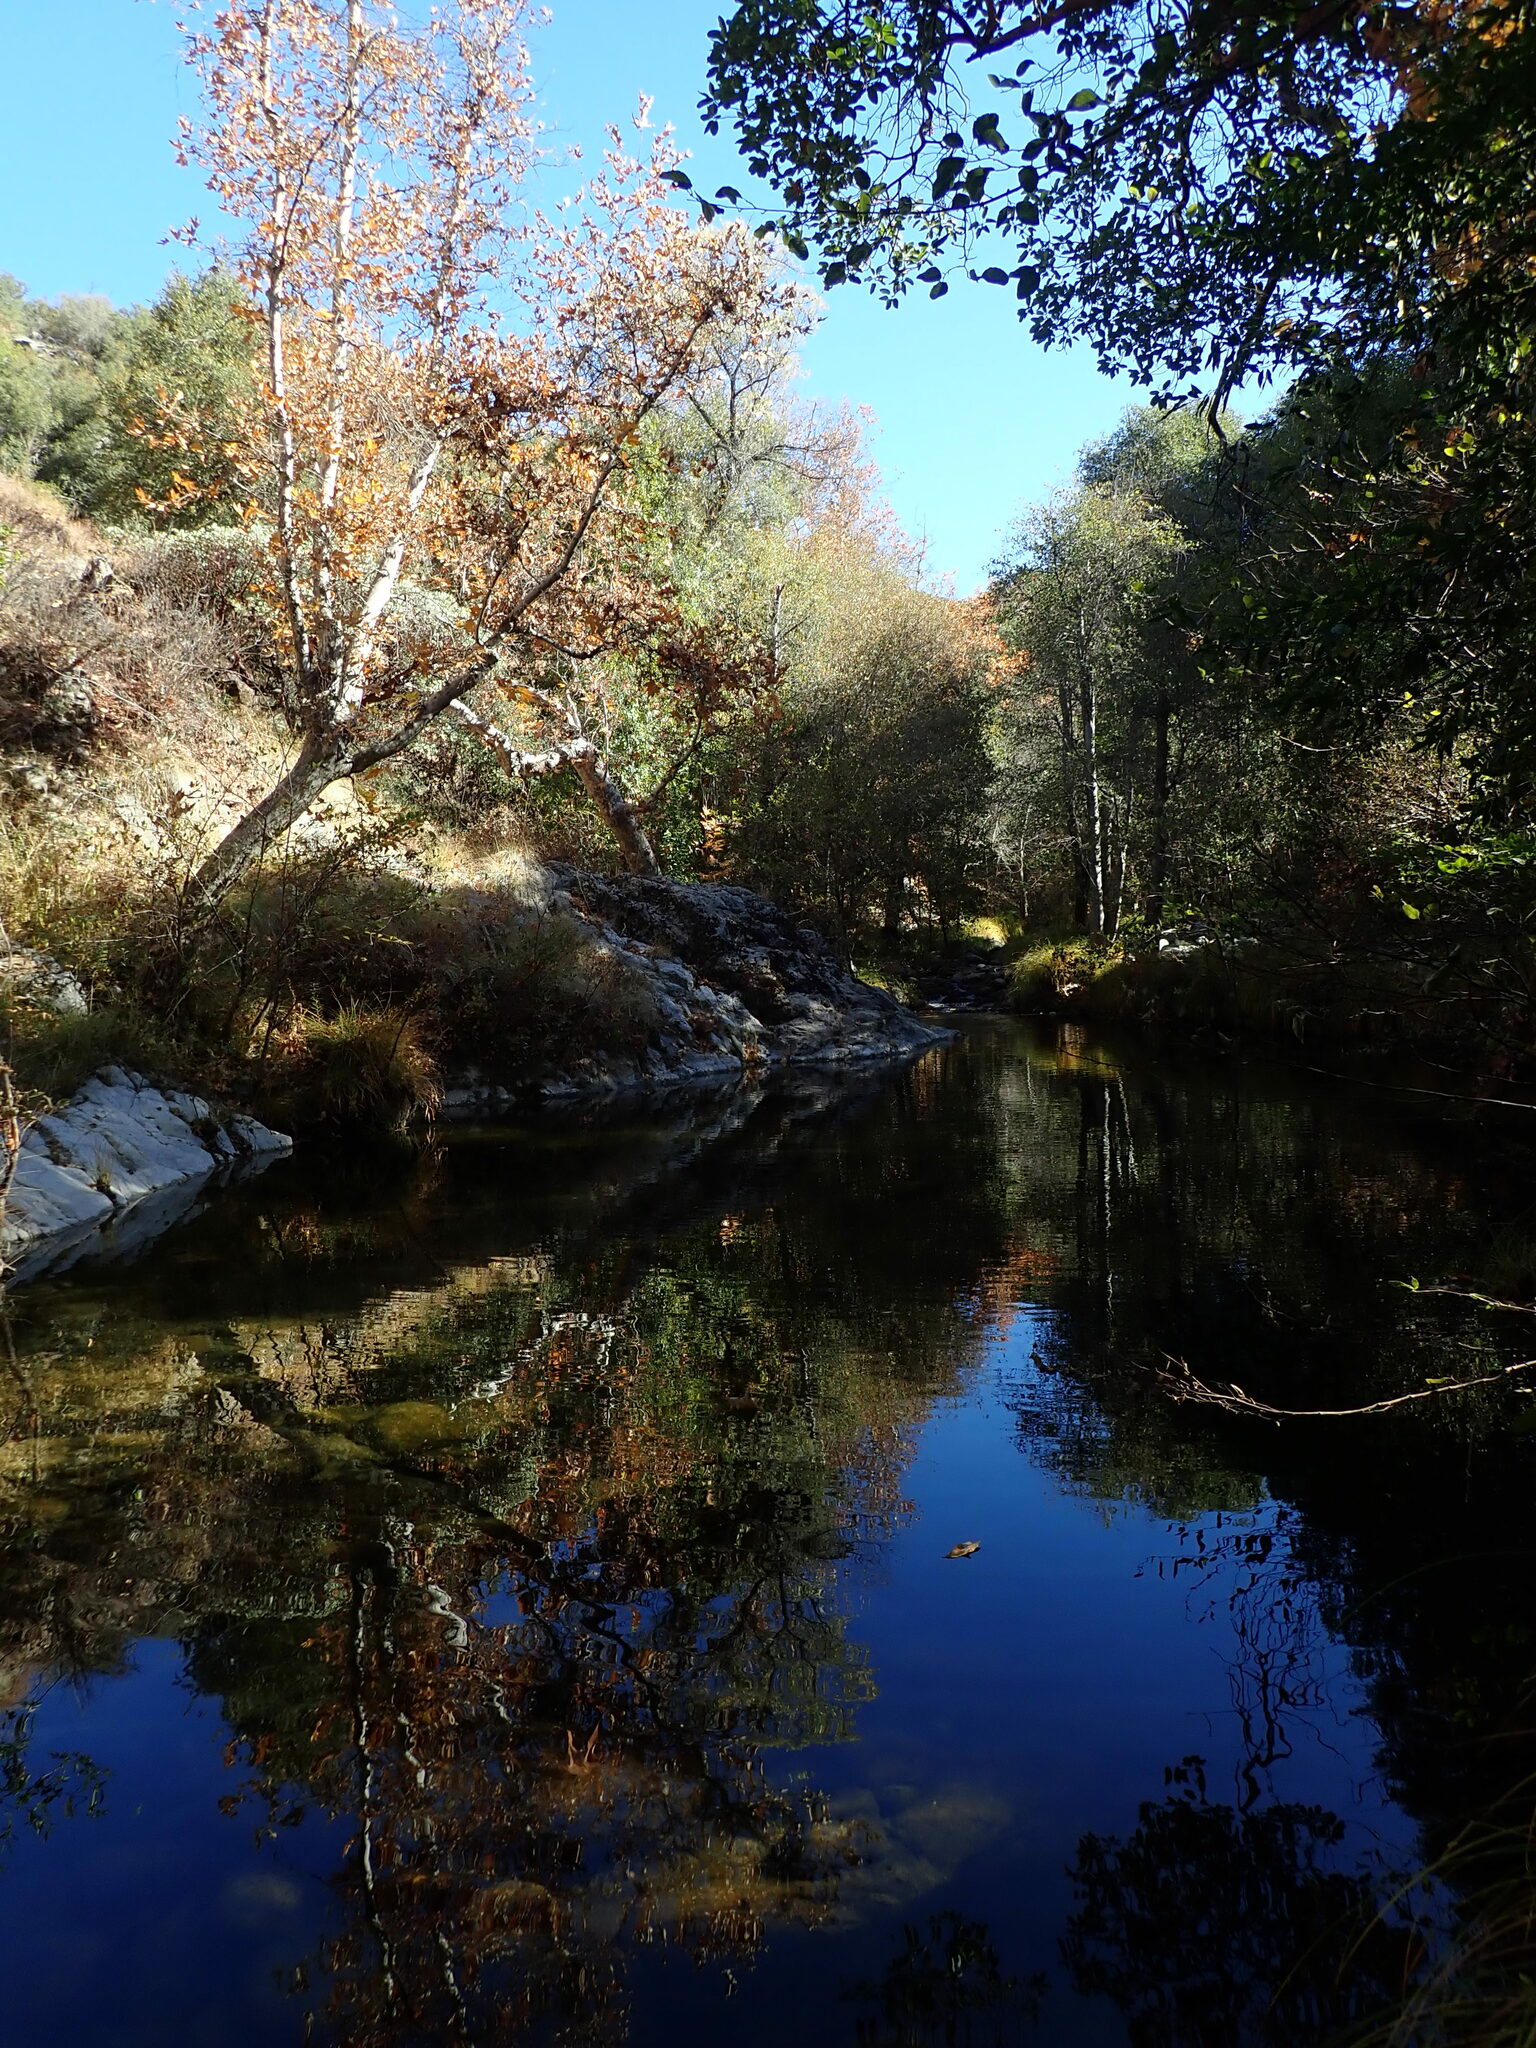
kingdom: Plantae
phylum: Tracheophyta
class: Magnoliopsida
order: Proteales
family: Platanaceae
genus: Platanus
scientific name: Platanus racemosa
